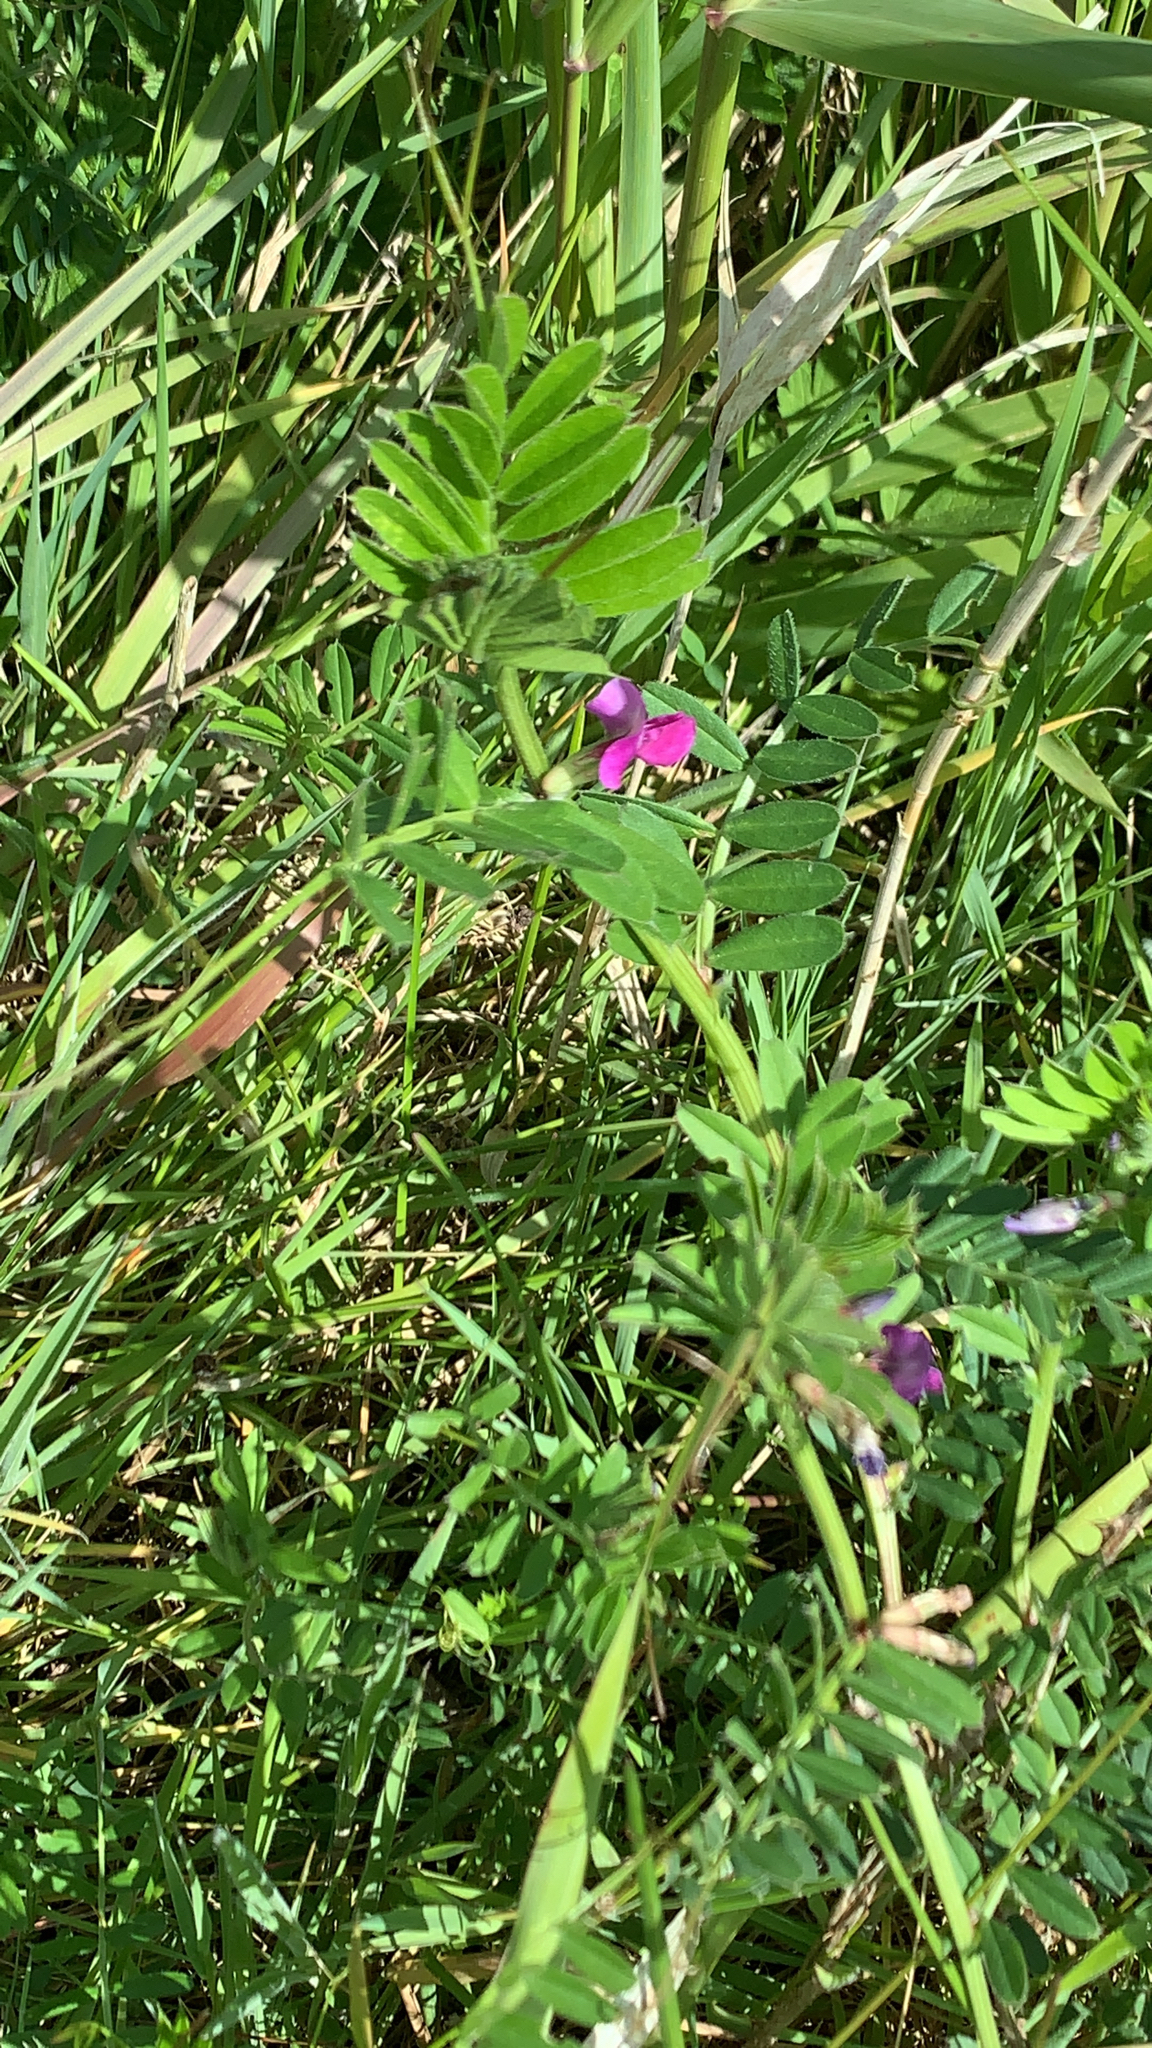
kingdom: Plantae
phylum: Tracheophyta
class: Magnoliopsida
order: Fabales
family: Fabaceae
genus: Vicia
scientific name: Vicia sativa
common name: Garden vetch
